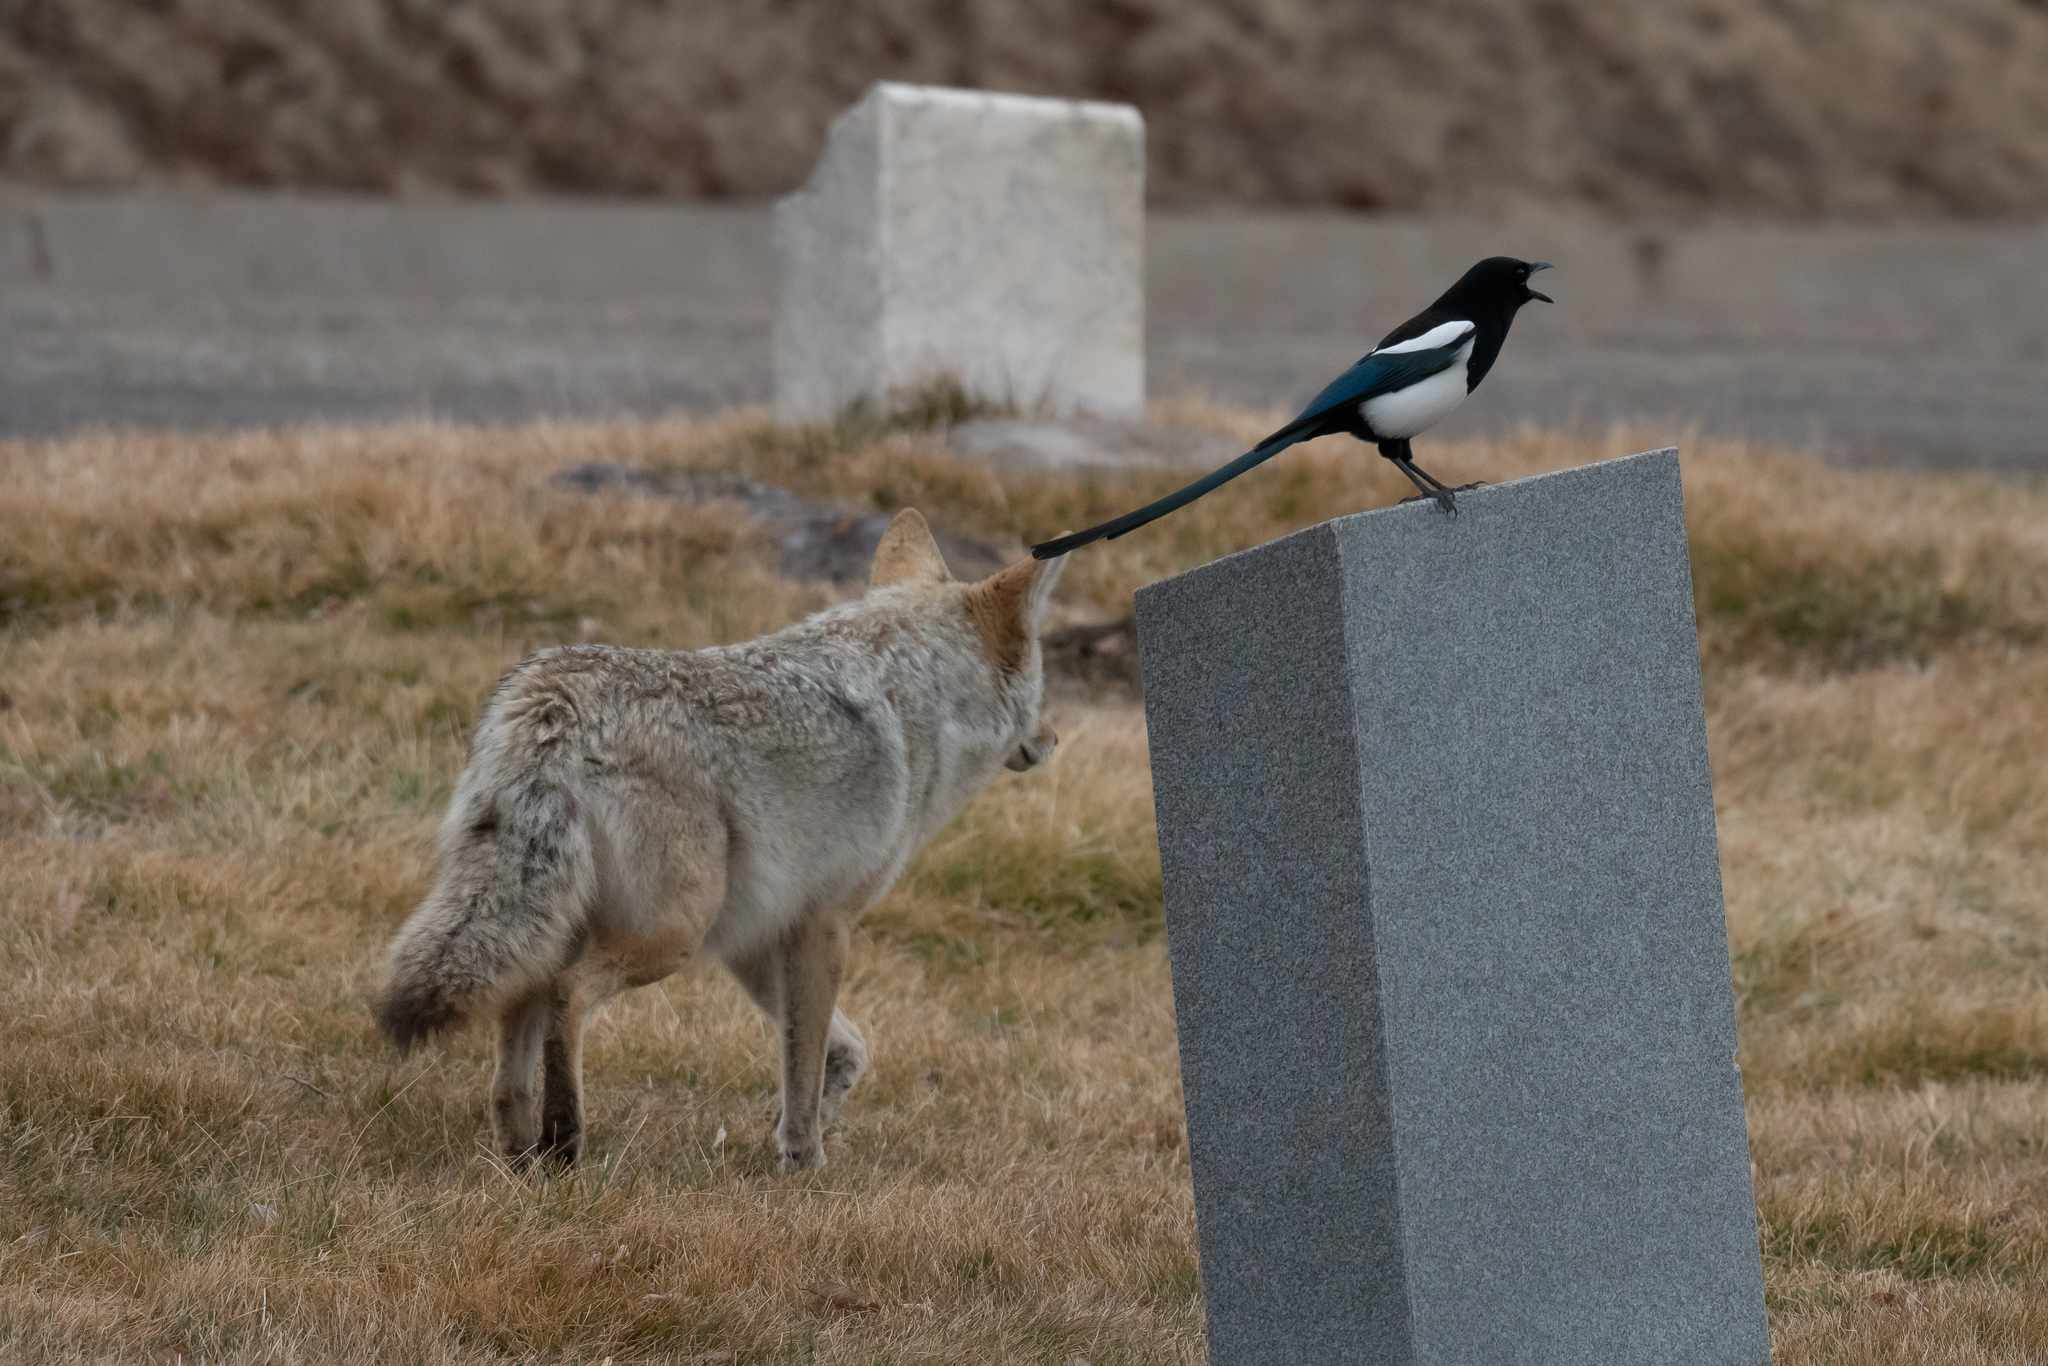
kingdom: Animalia
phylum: Chordata
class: Mammalia
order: Carnivora
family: Canidae
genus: Canis
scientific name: Canis latrans
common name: Coyote
